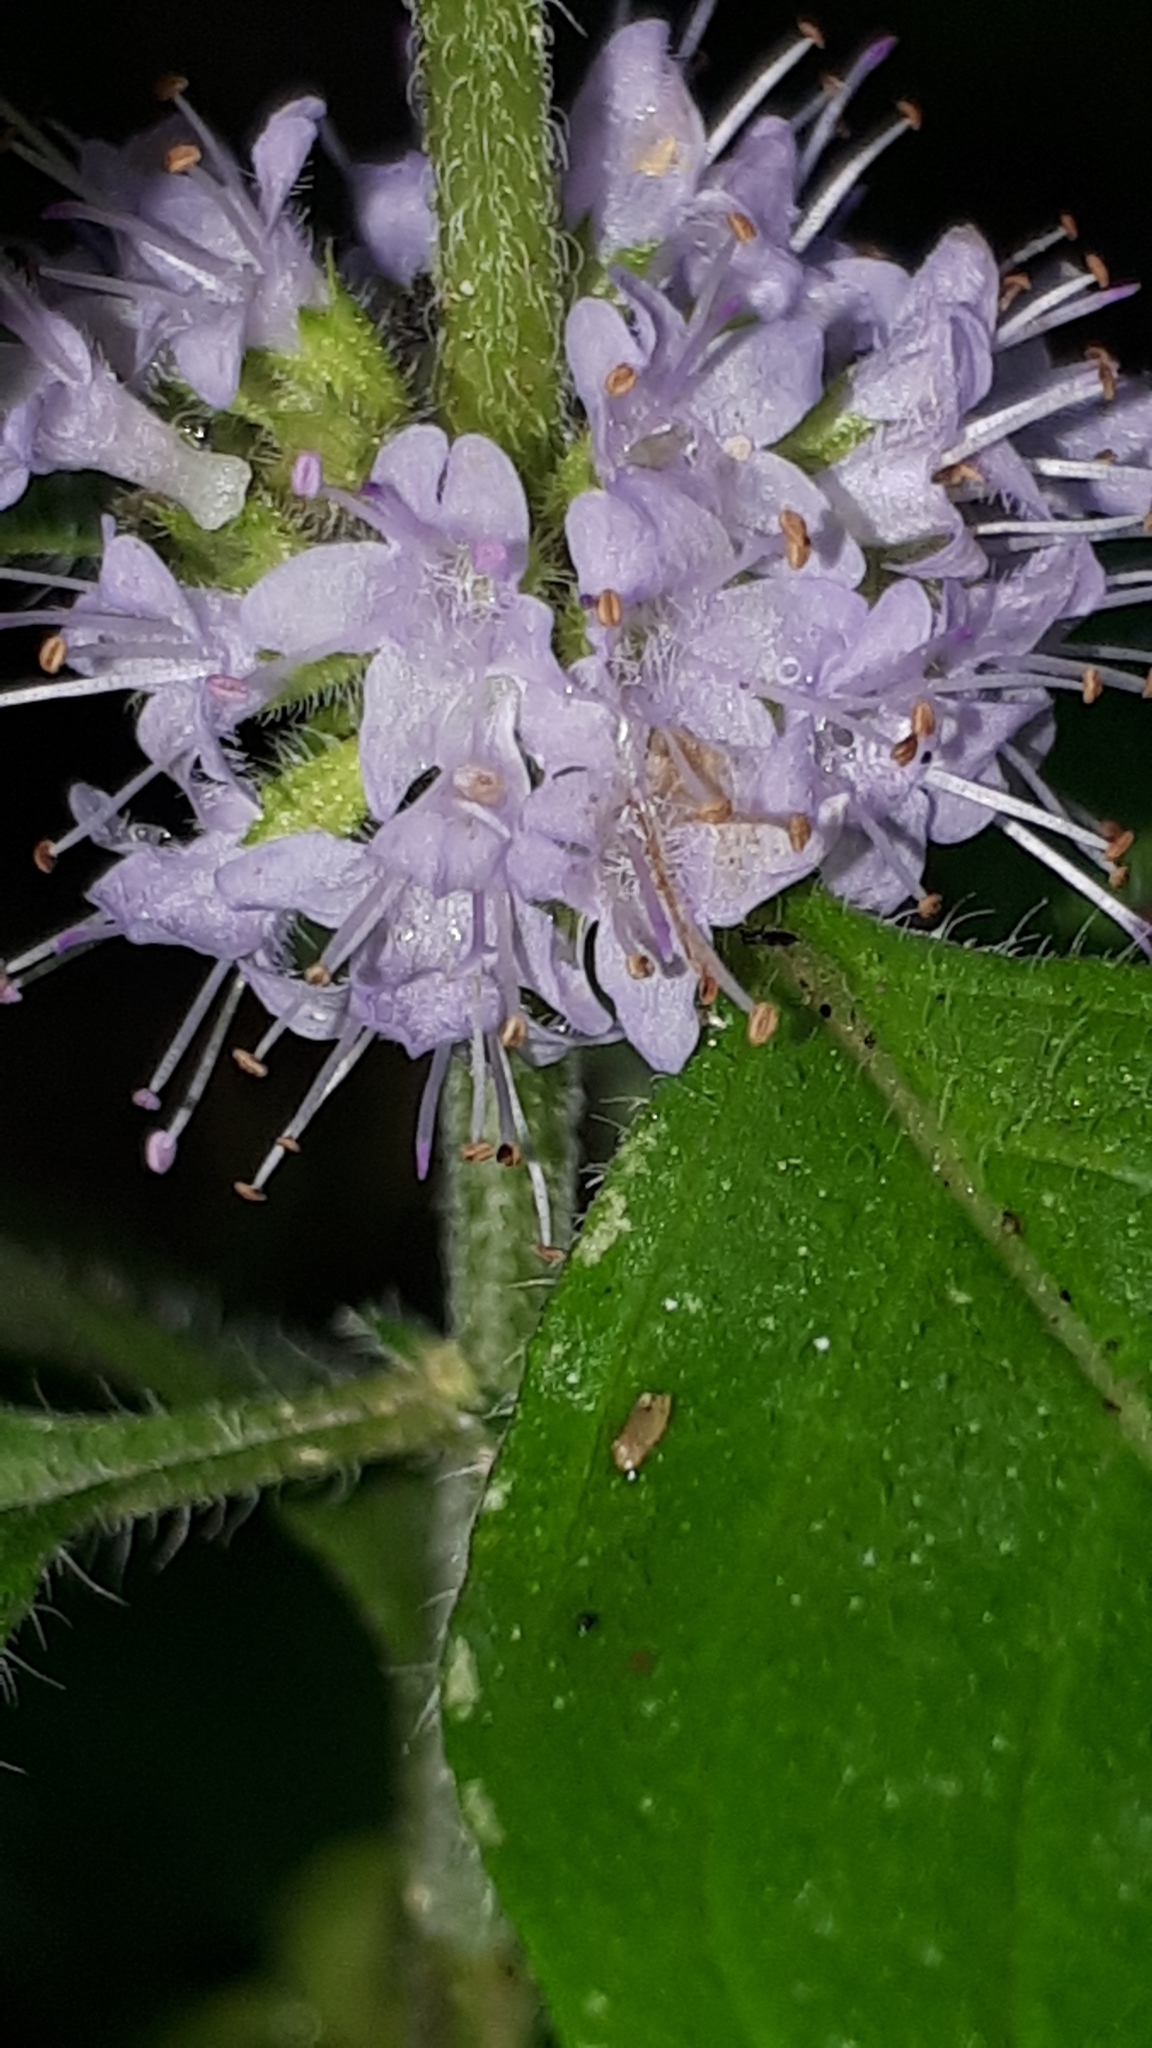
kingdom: Plantae
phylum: Tracheophyta
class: Magnoliopsida
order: Lamiales
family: Lamiaceae
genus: Mentha
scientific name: Mentha arvensis
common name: Corn mint
